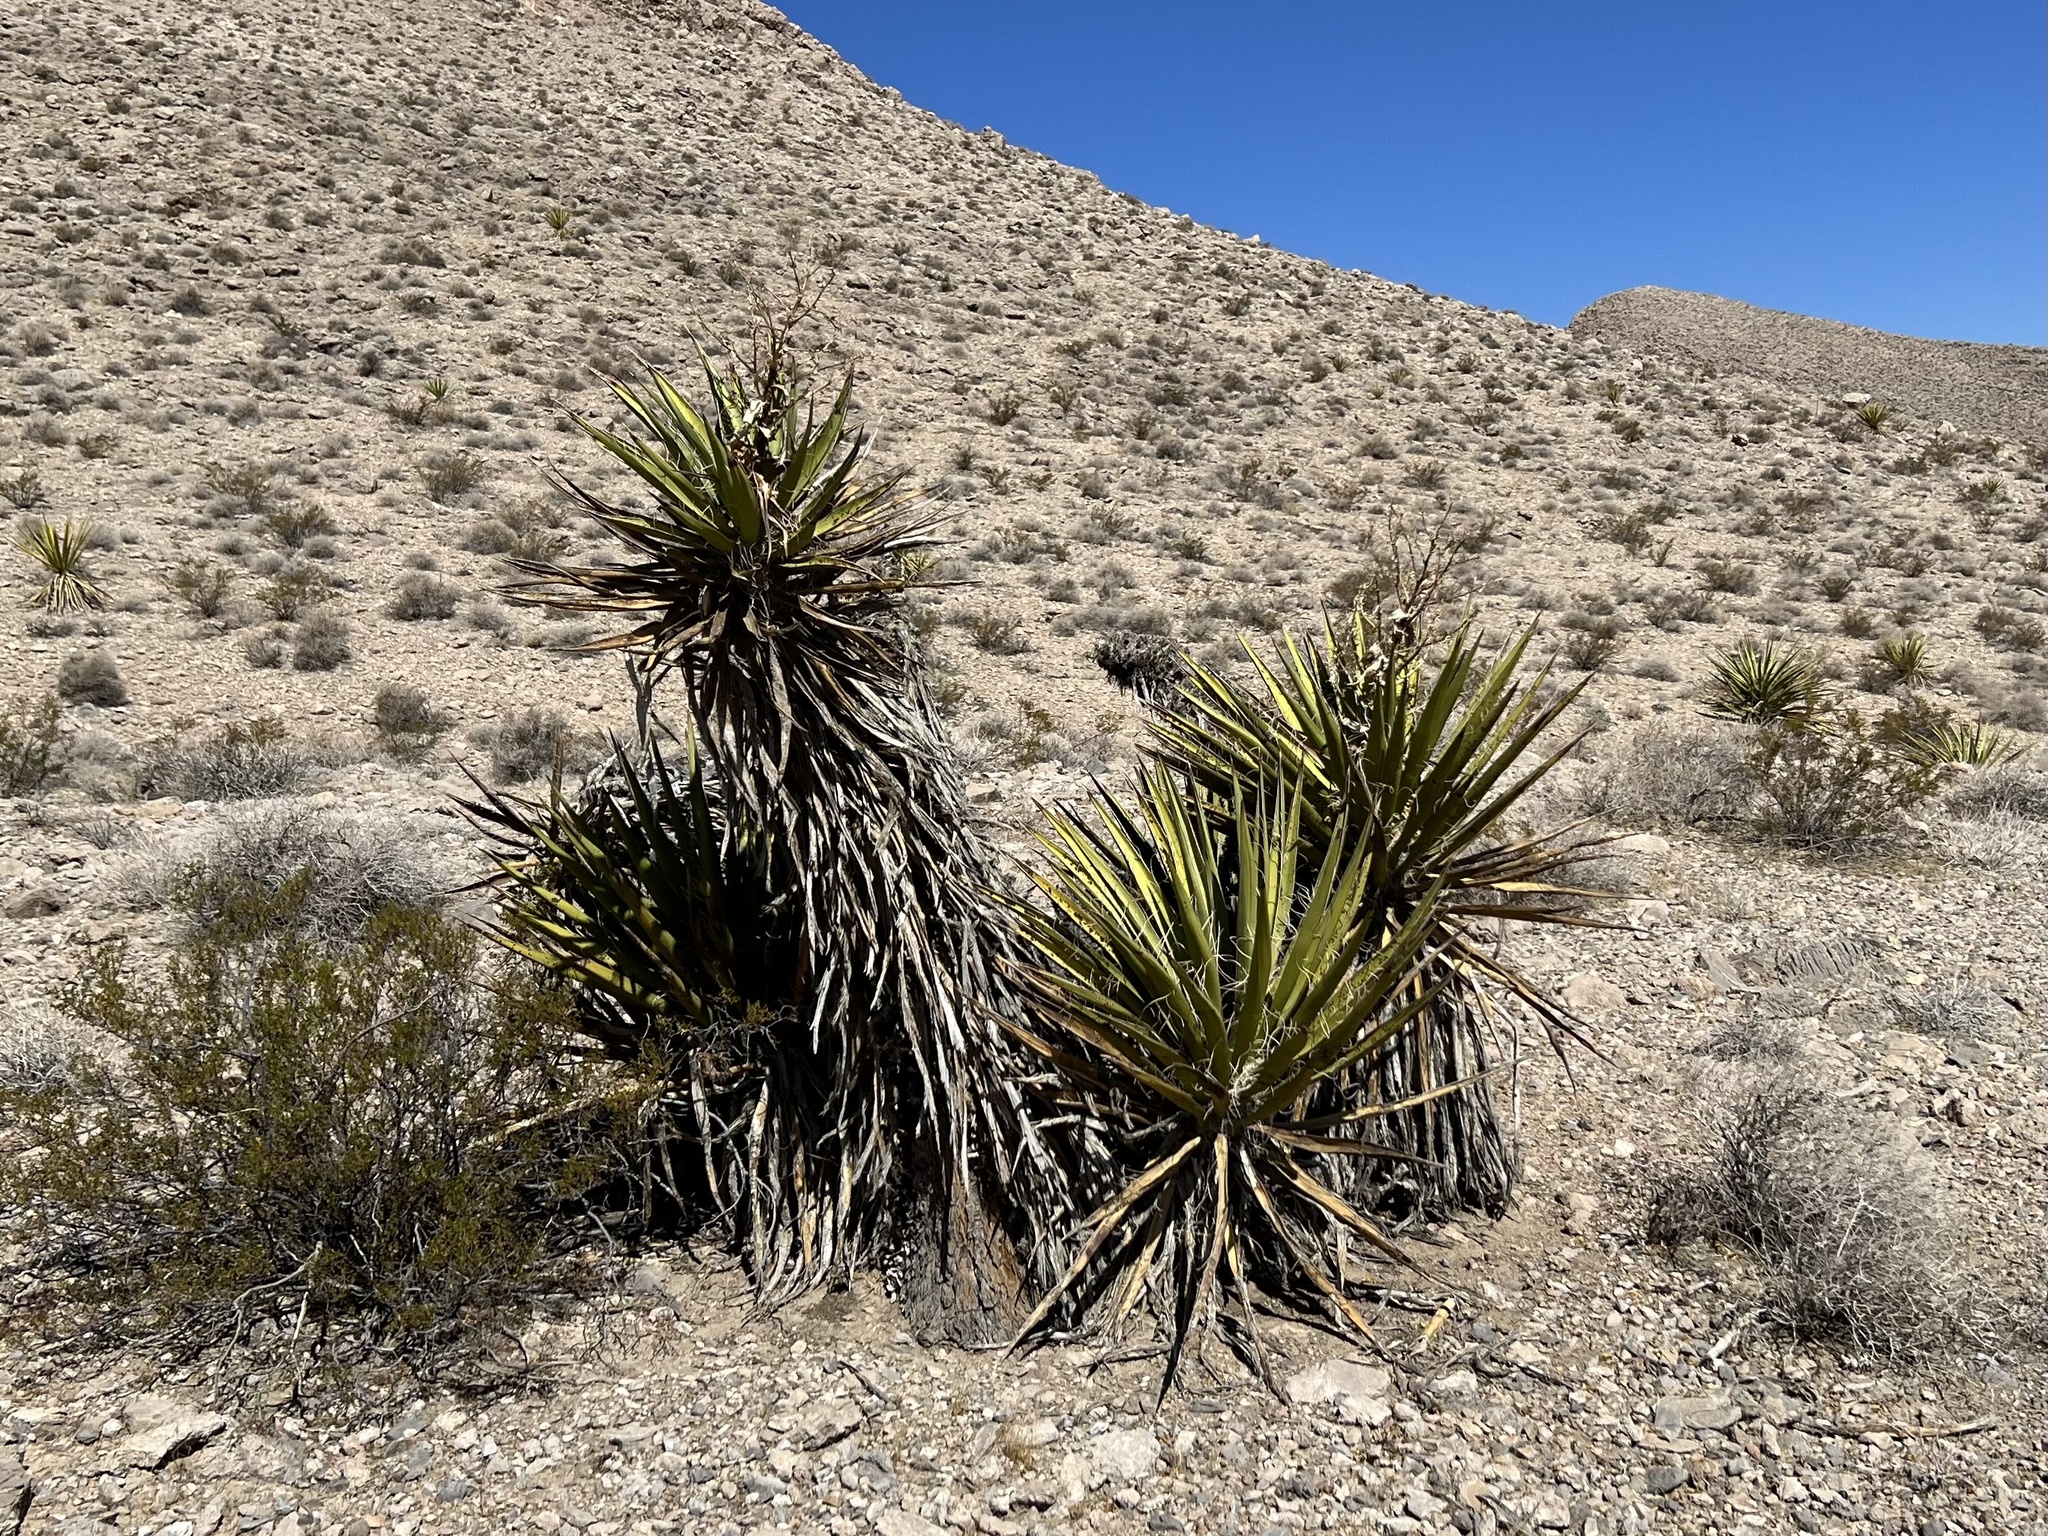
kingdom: Plantae
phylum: Tracheophyta
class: Liliopsida
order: Asparagales
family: Asparagaceae
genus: Yucca
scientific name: Yucca schidigera
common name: Mojave yucca
